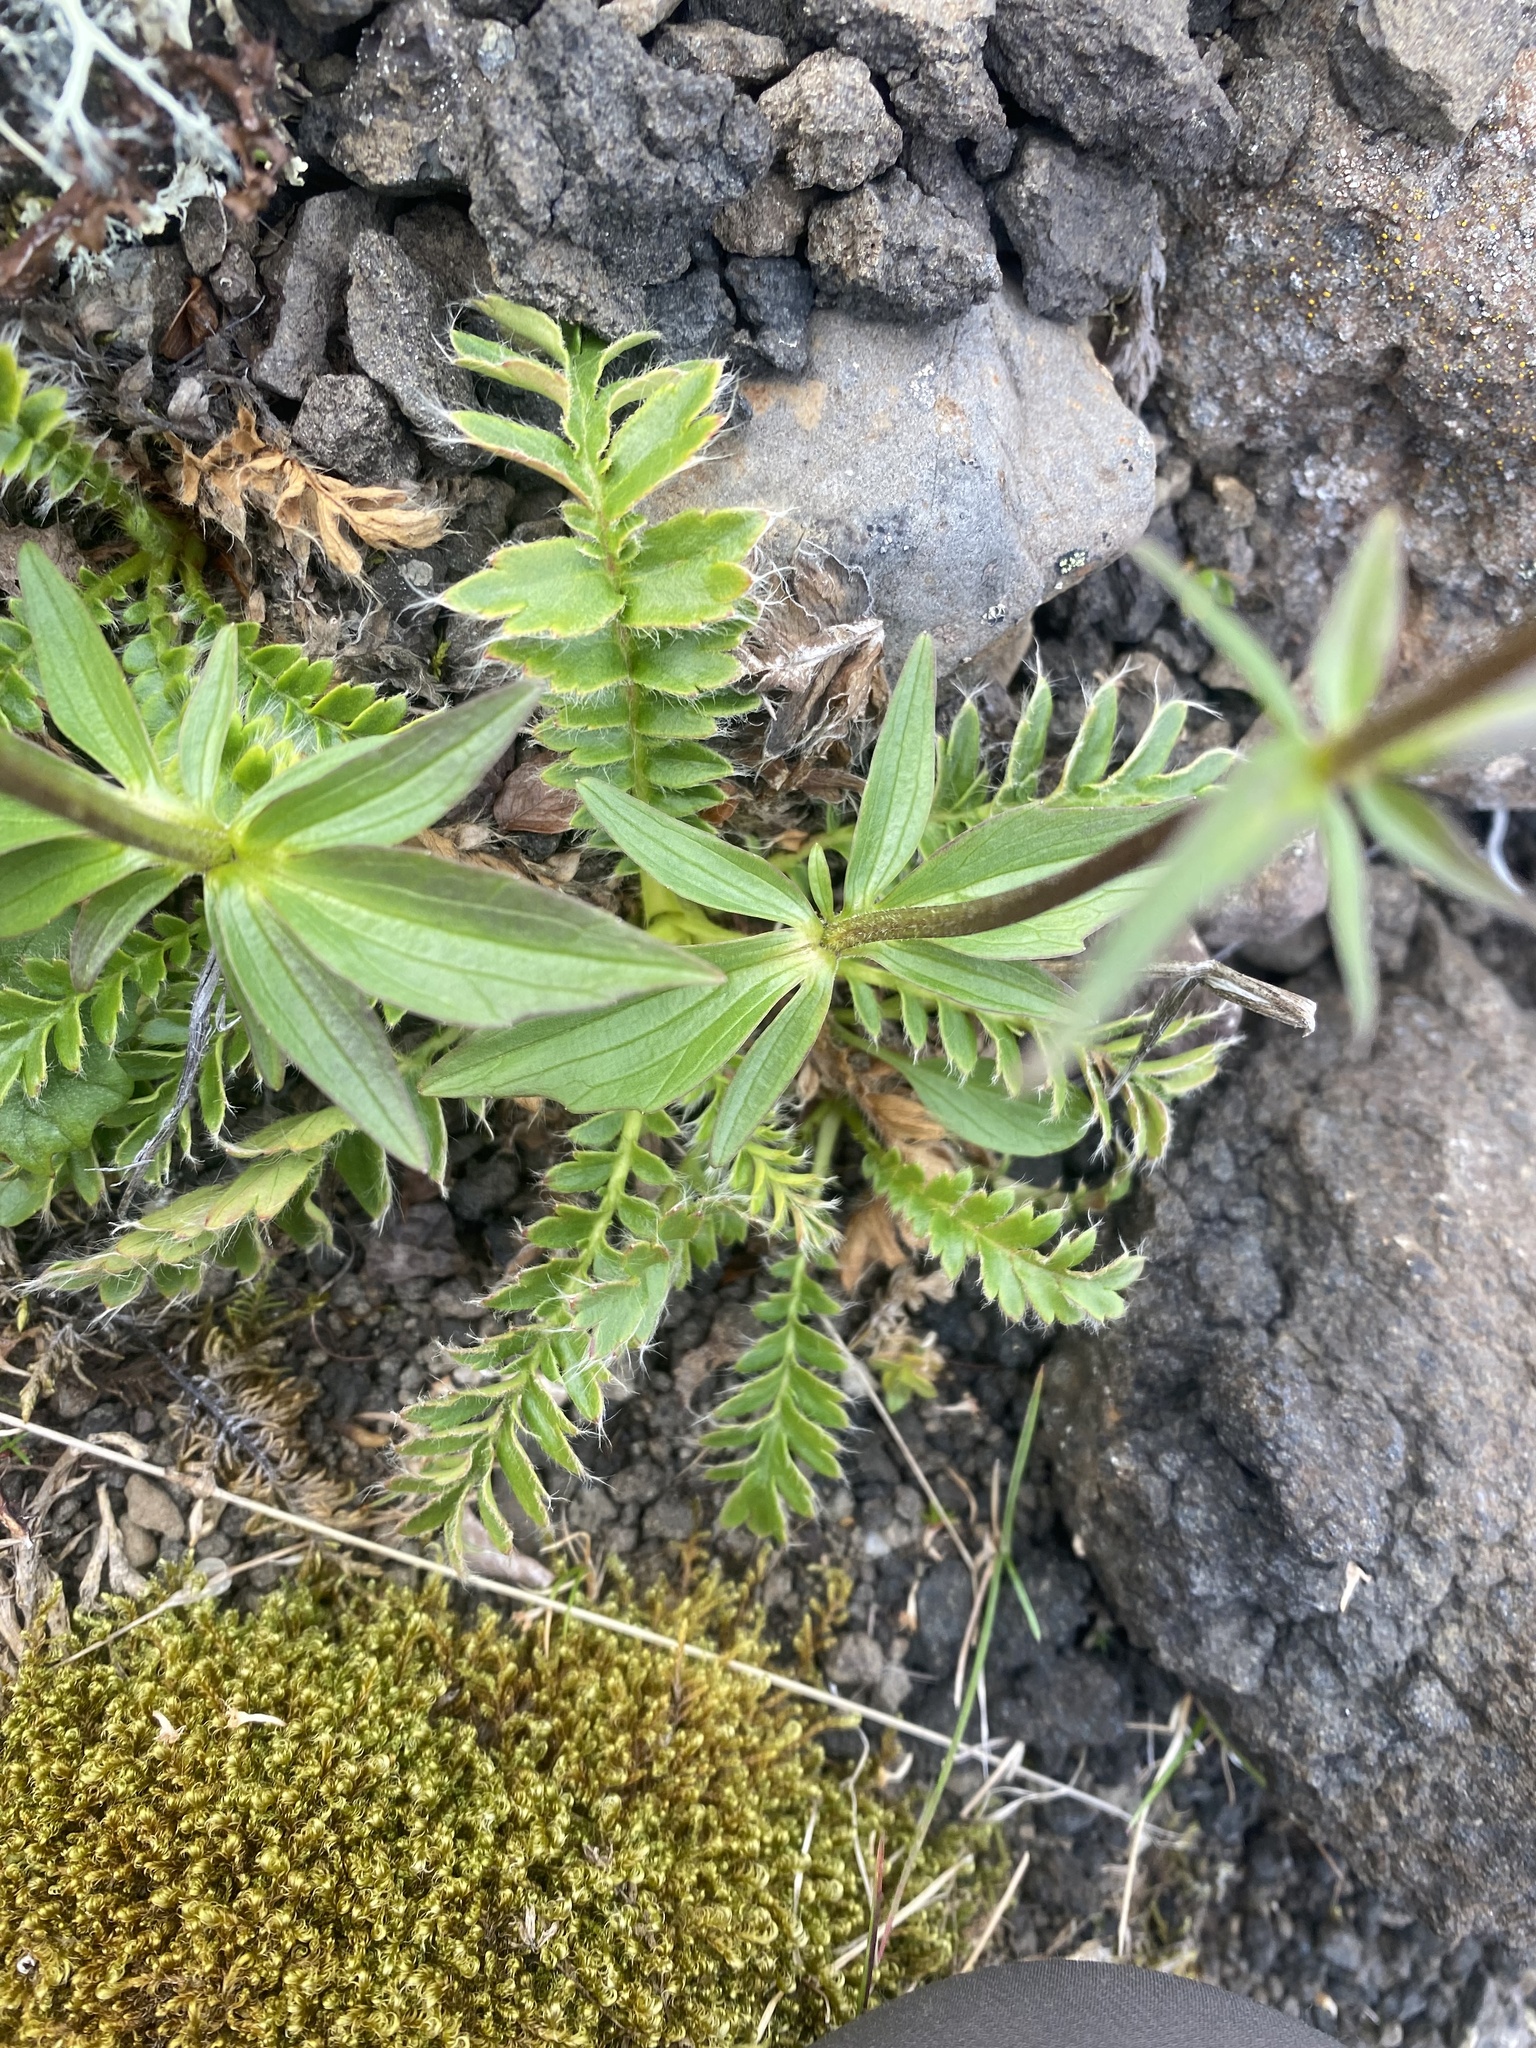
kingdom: Plantae
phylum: Tracheophyta
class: Magnoliopsida
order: Dipsacales
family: Caprifoliaceae
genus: Valeriana
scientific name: Valeriana capitata
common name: Capitate valerian
